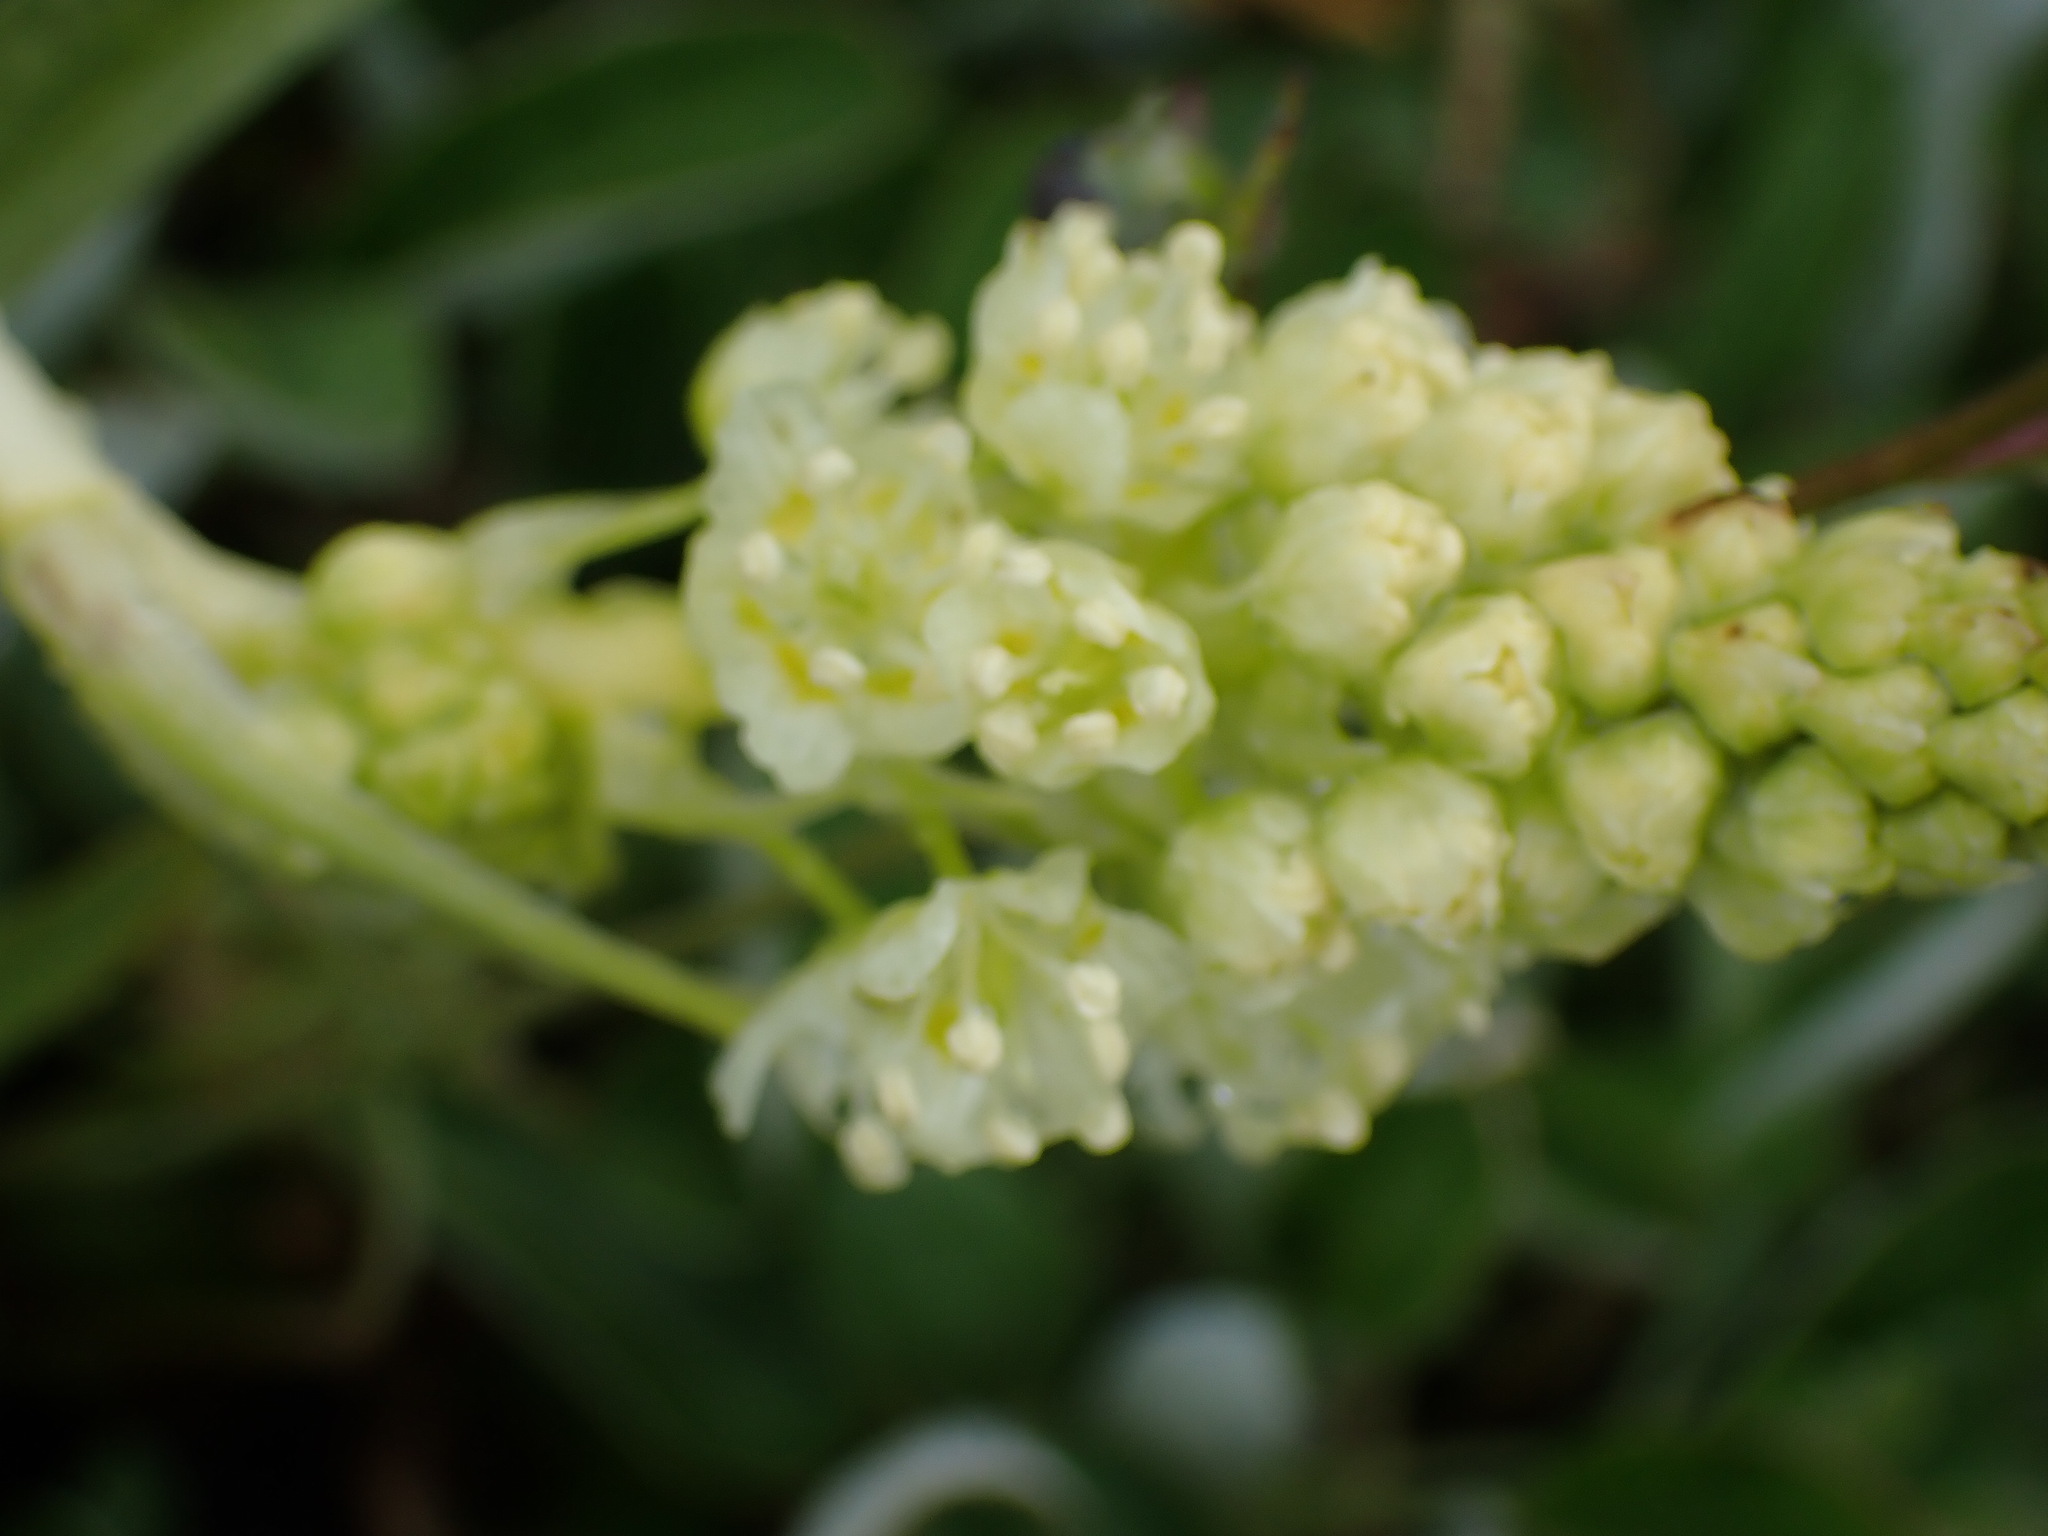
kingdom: Plantae
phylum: Tracheophyta
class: Liliopsida
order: Liliales
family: Melanthiaceae
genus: Toxicoscordion
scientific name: Toxicoscordion venenosum
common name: Meadow death camas
